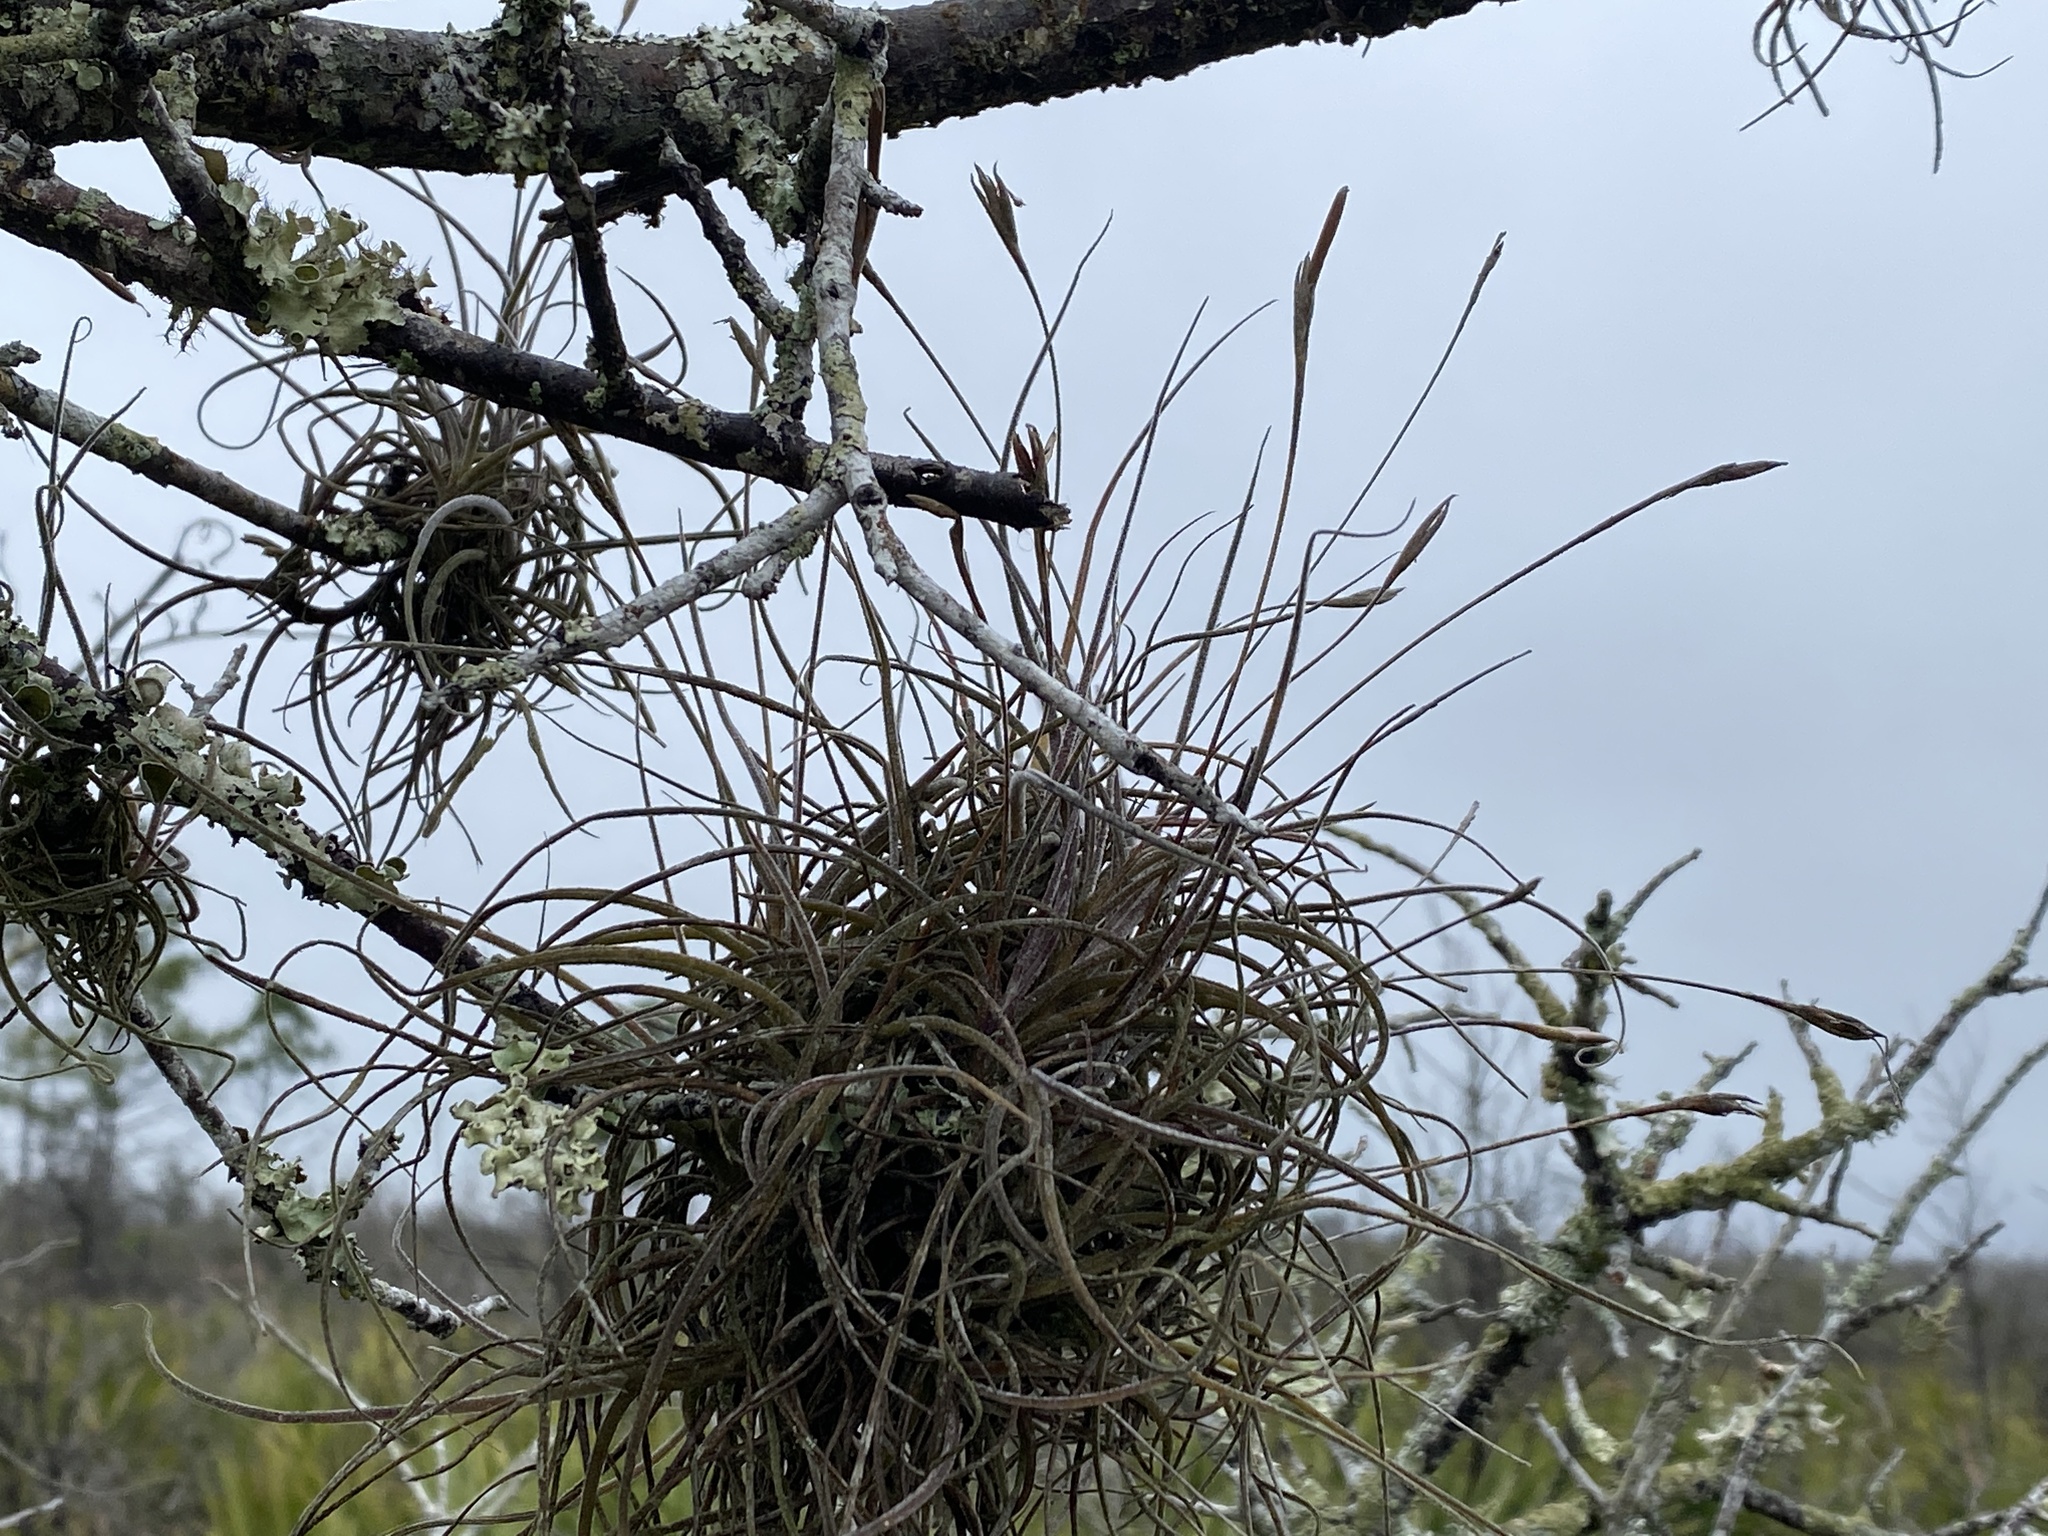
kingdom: Plantae
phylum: Tracheophyta
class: Liliopsida
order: Poales
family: Bromeliaceae
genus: Tillandsia
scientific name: Tillandsia recurvata
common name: Small ballmoss
